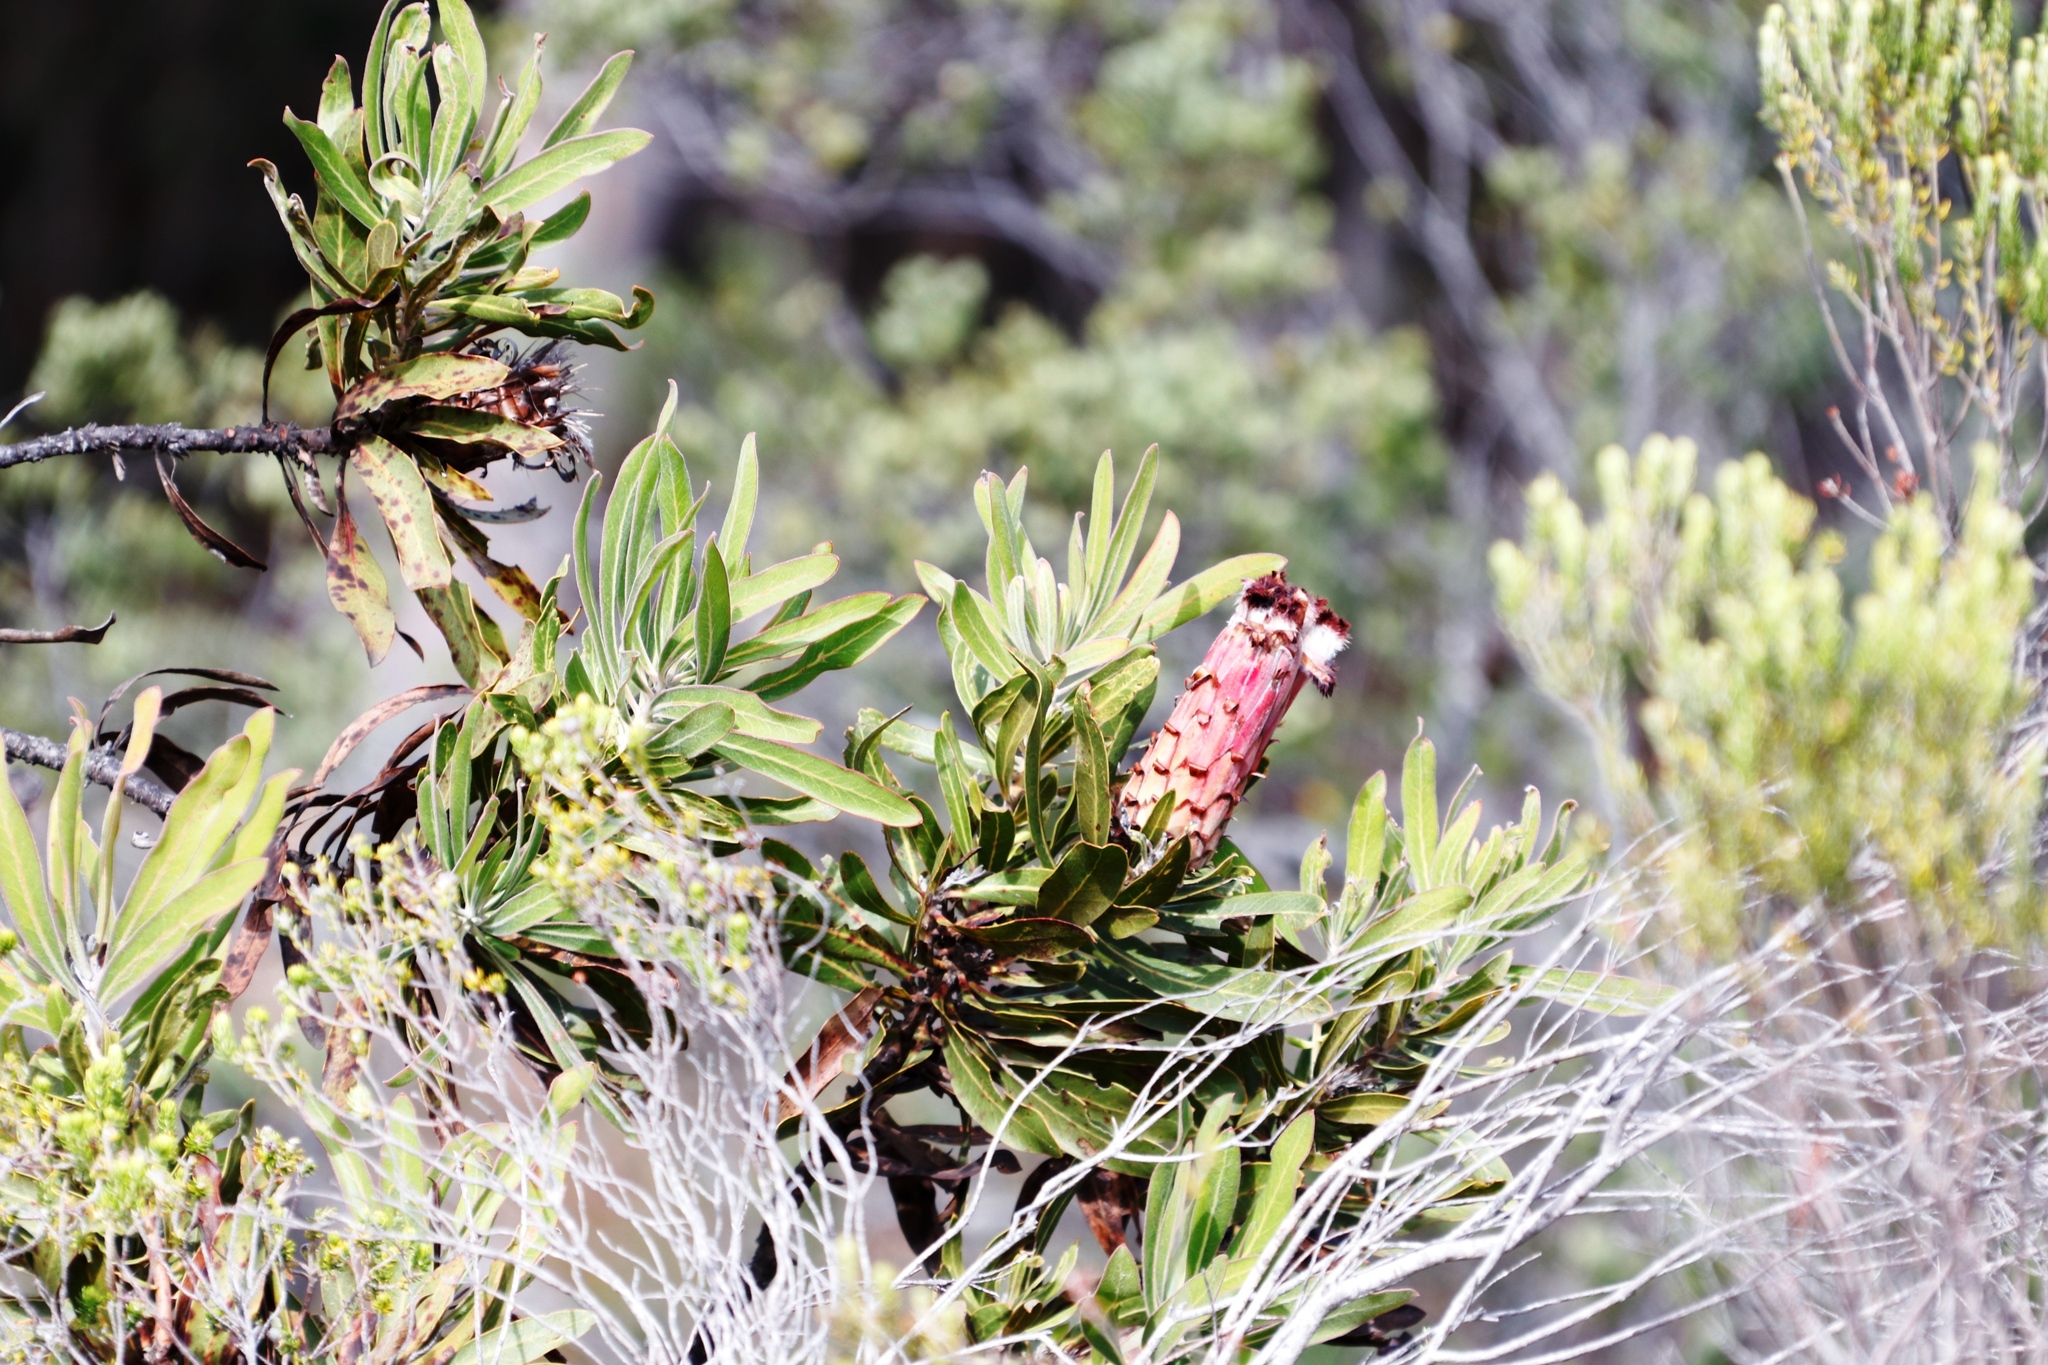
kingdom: Plantae
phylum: Tracheophyta
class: Magnoliopsida
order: Proteales
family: Proteaceae
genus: Protea
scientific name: Protea neriifolia
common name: Blue sugarbush
